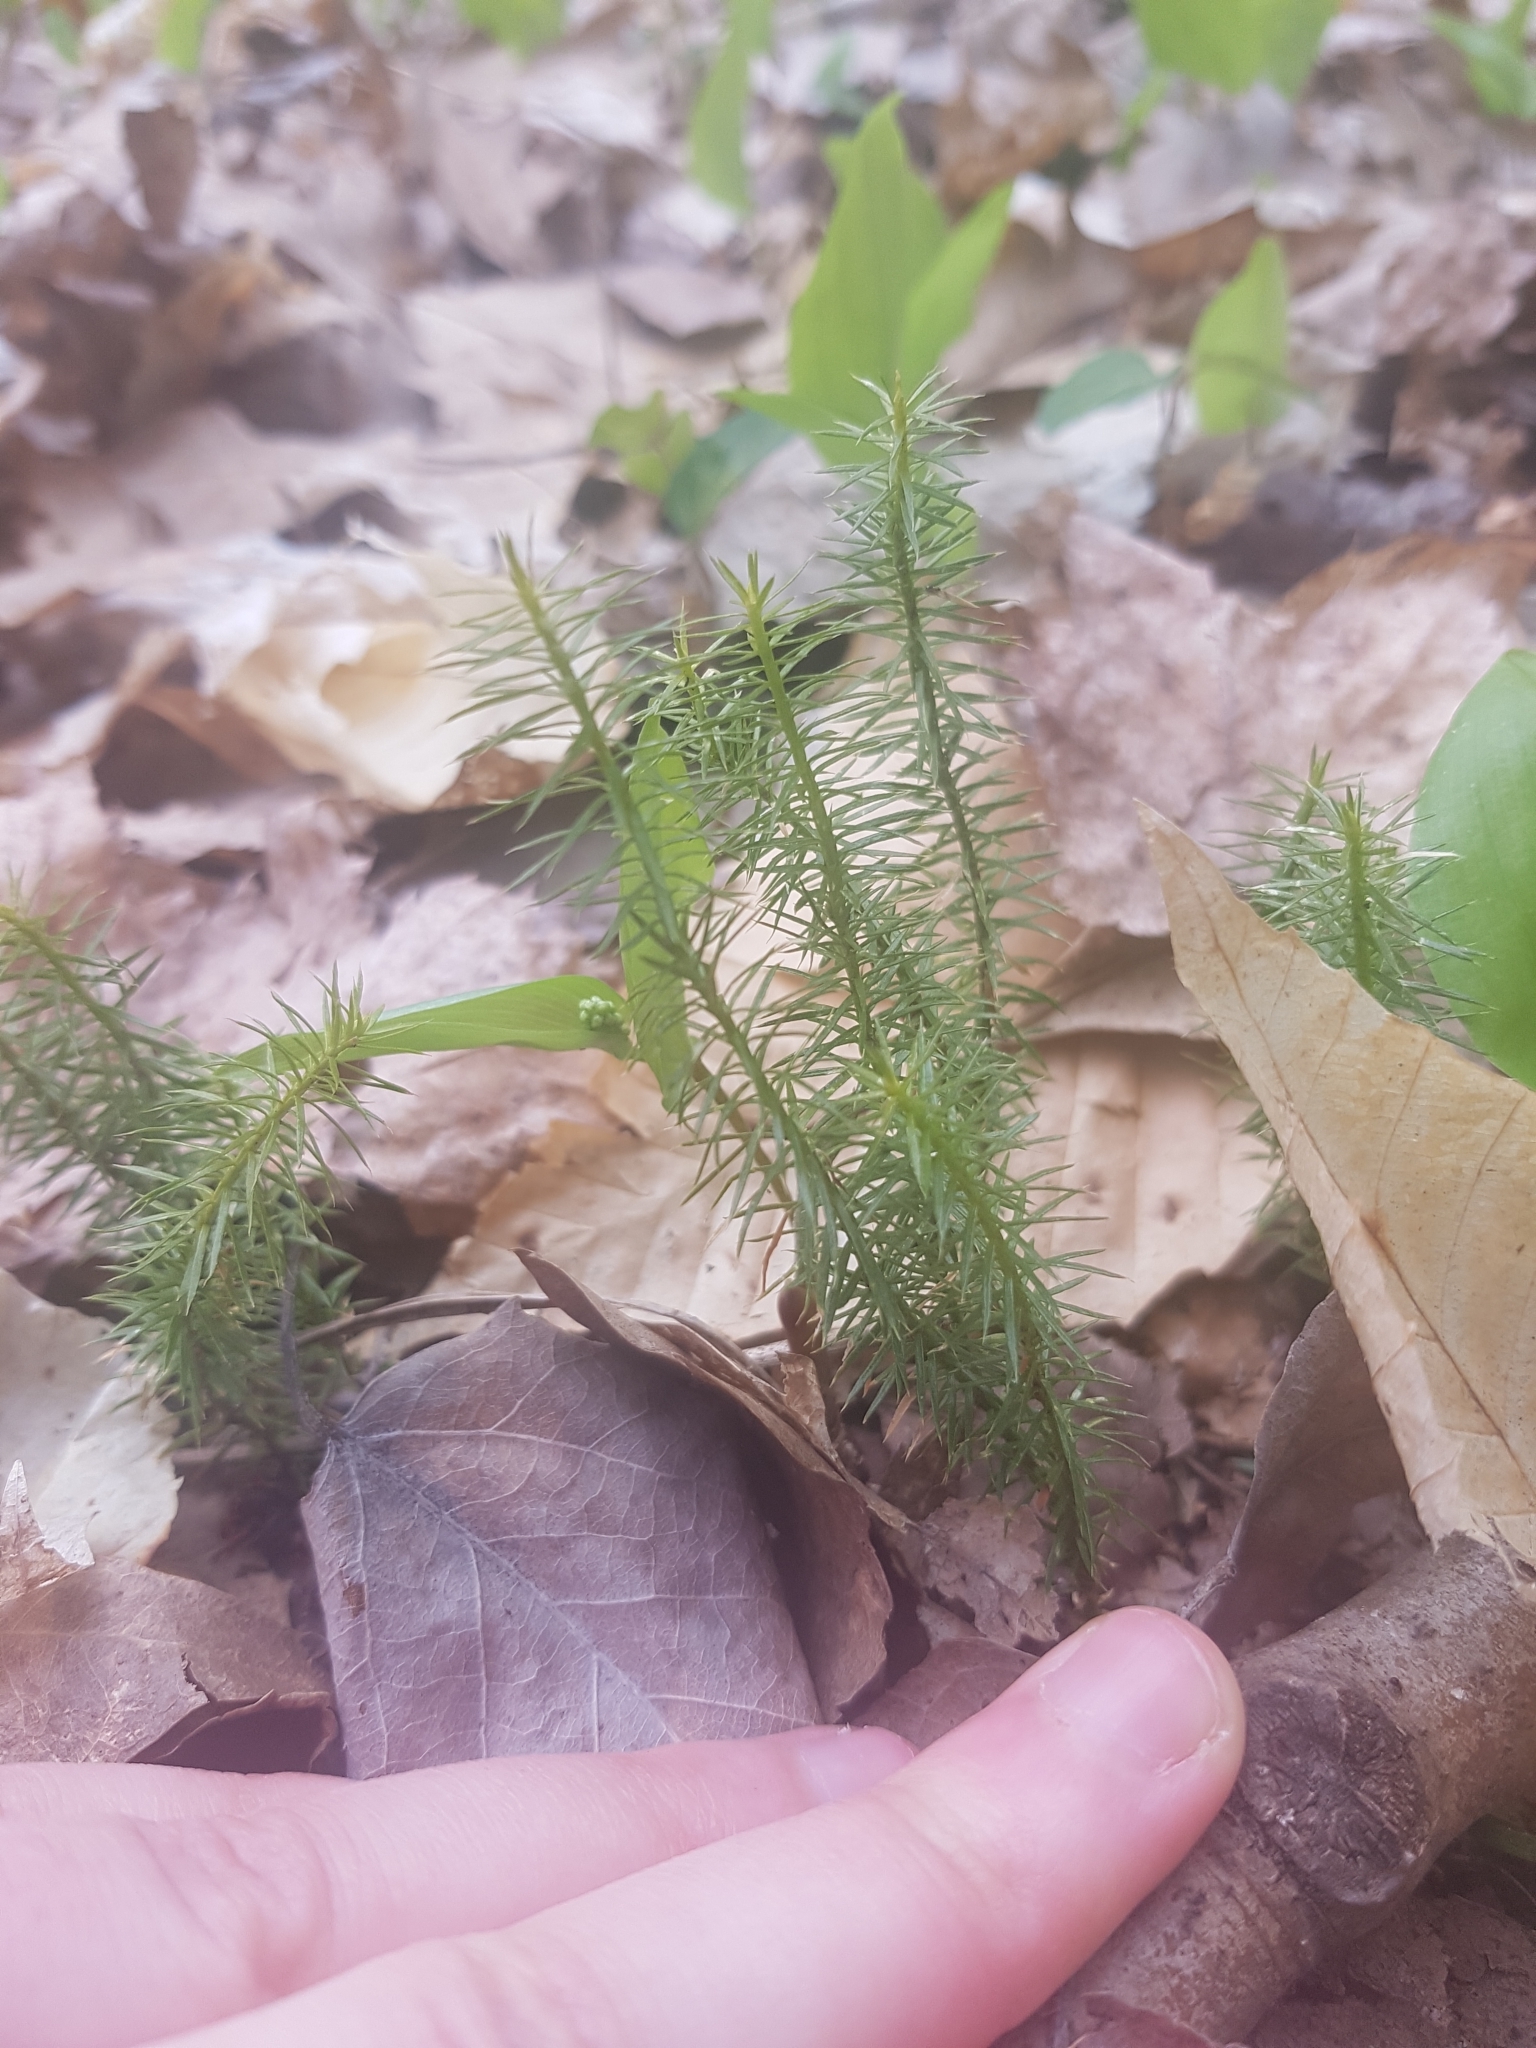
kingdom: Plantae
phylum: Tracheophyta
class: Lycopodiopsida
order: Lycopodiales
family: Lycopodiaceae
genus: Spinulum
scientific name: Spinulum annotinum
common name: Interrupted club-moss
